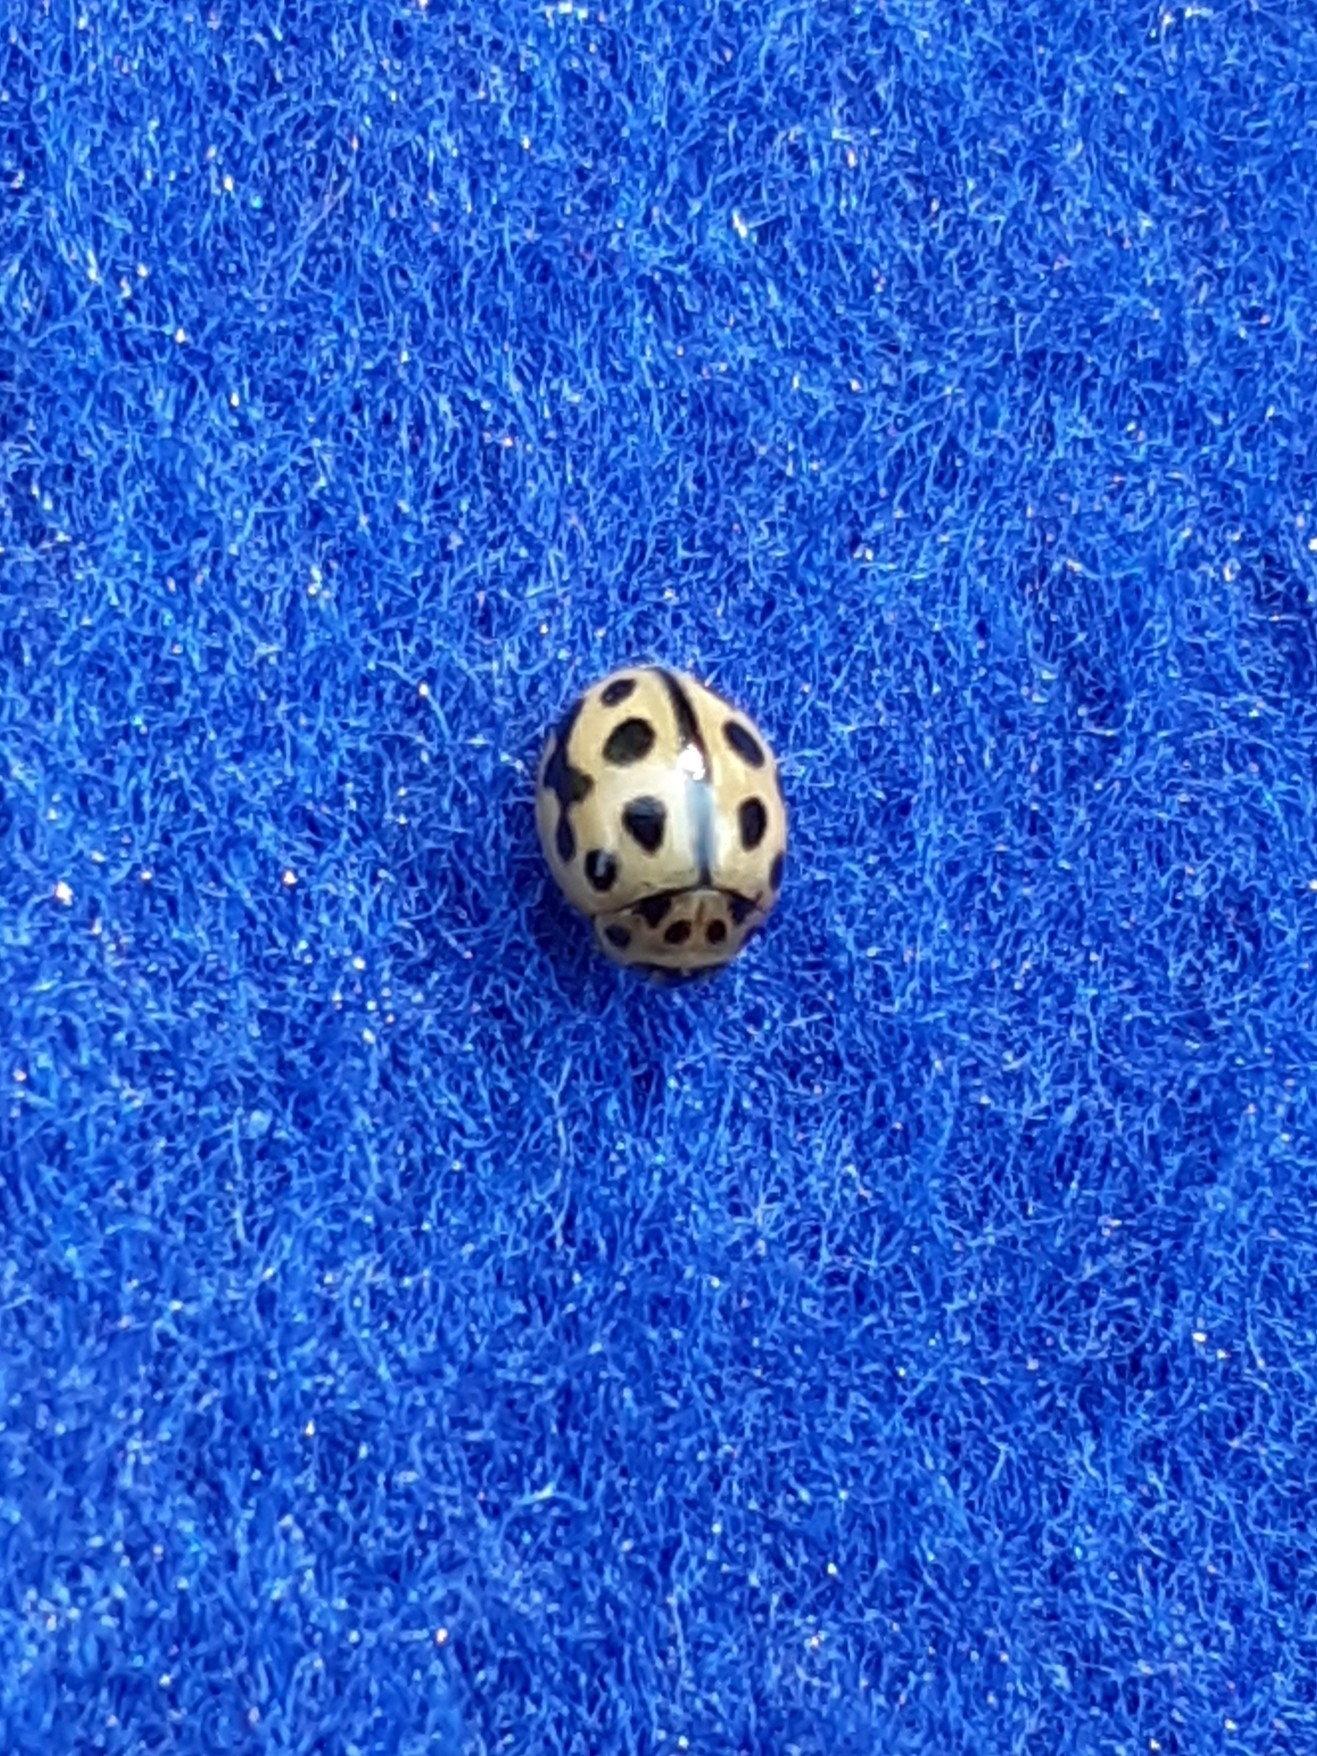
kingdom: Animalia
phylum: Arthropoda
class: Insecta
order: Coleoptera
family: Coccinellidae
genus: Tytthaspis
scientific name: Tytthaspis sedecimpunctata
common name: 16-spot ladybird
